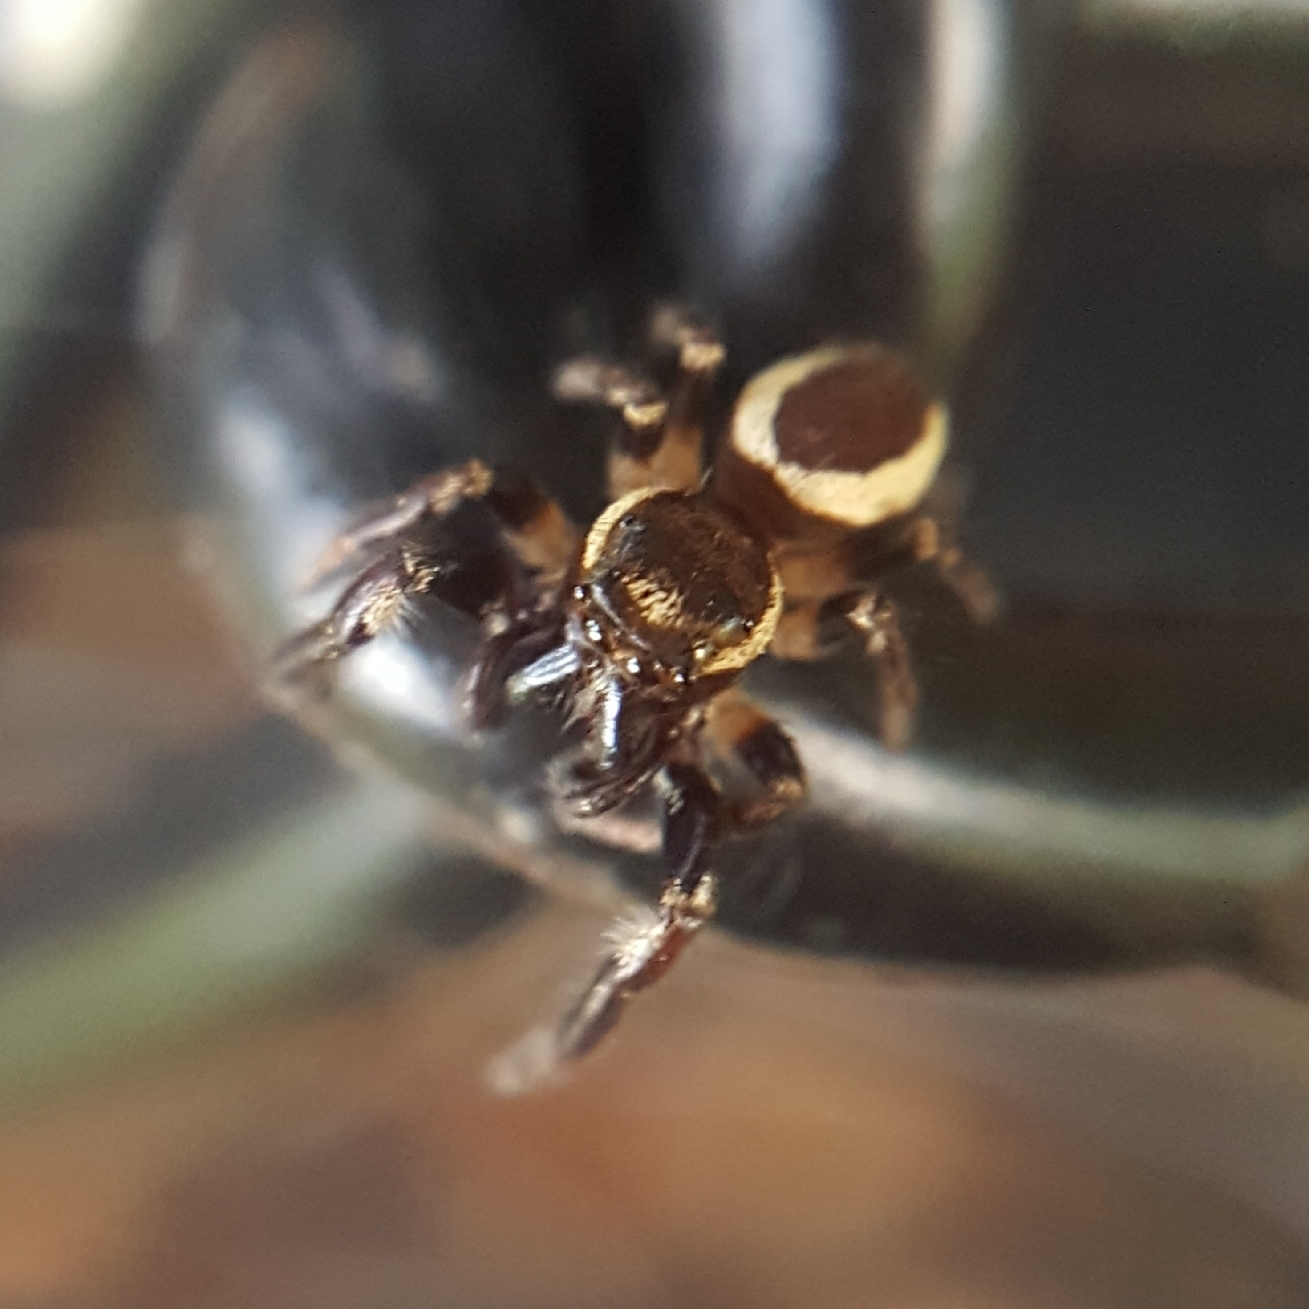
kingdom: Animalia
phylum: Arthropoda
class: Arachnida
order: Araneae
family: Salticidae
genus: Eris
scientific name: Eris militaris
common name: Bronze jumper
